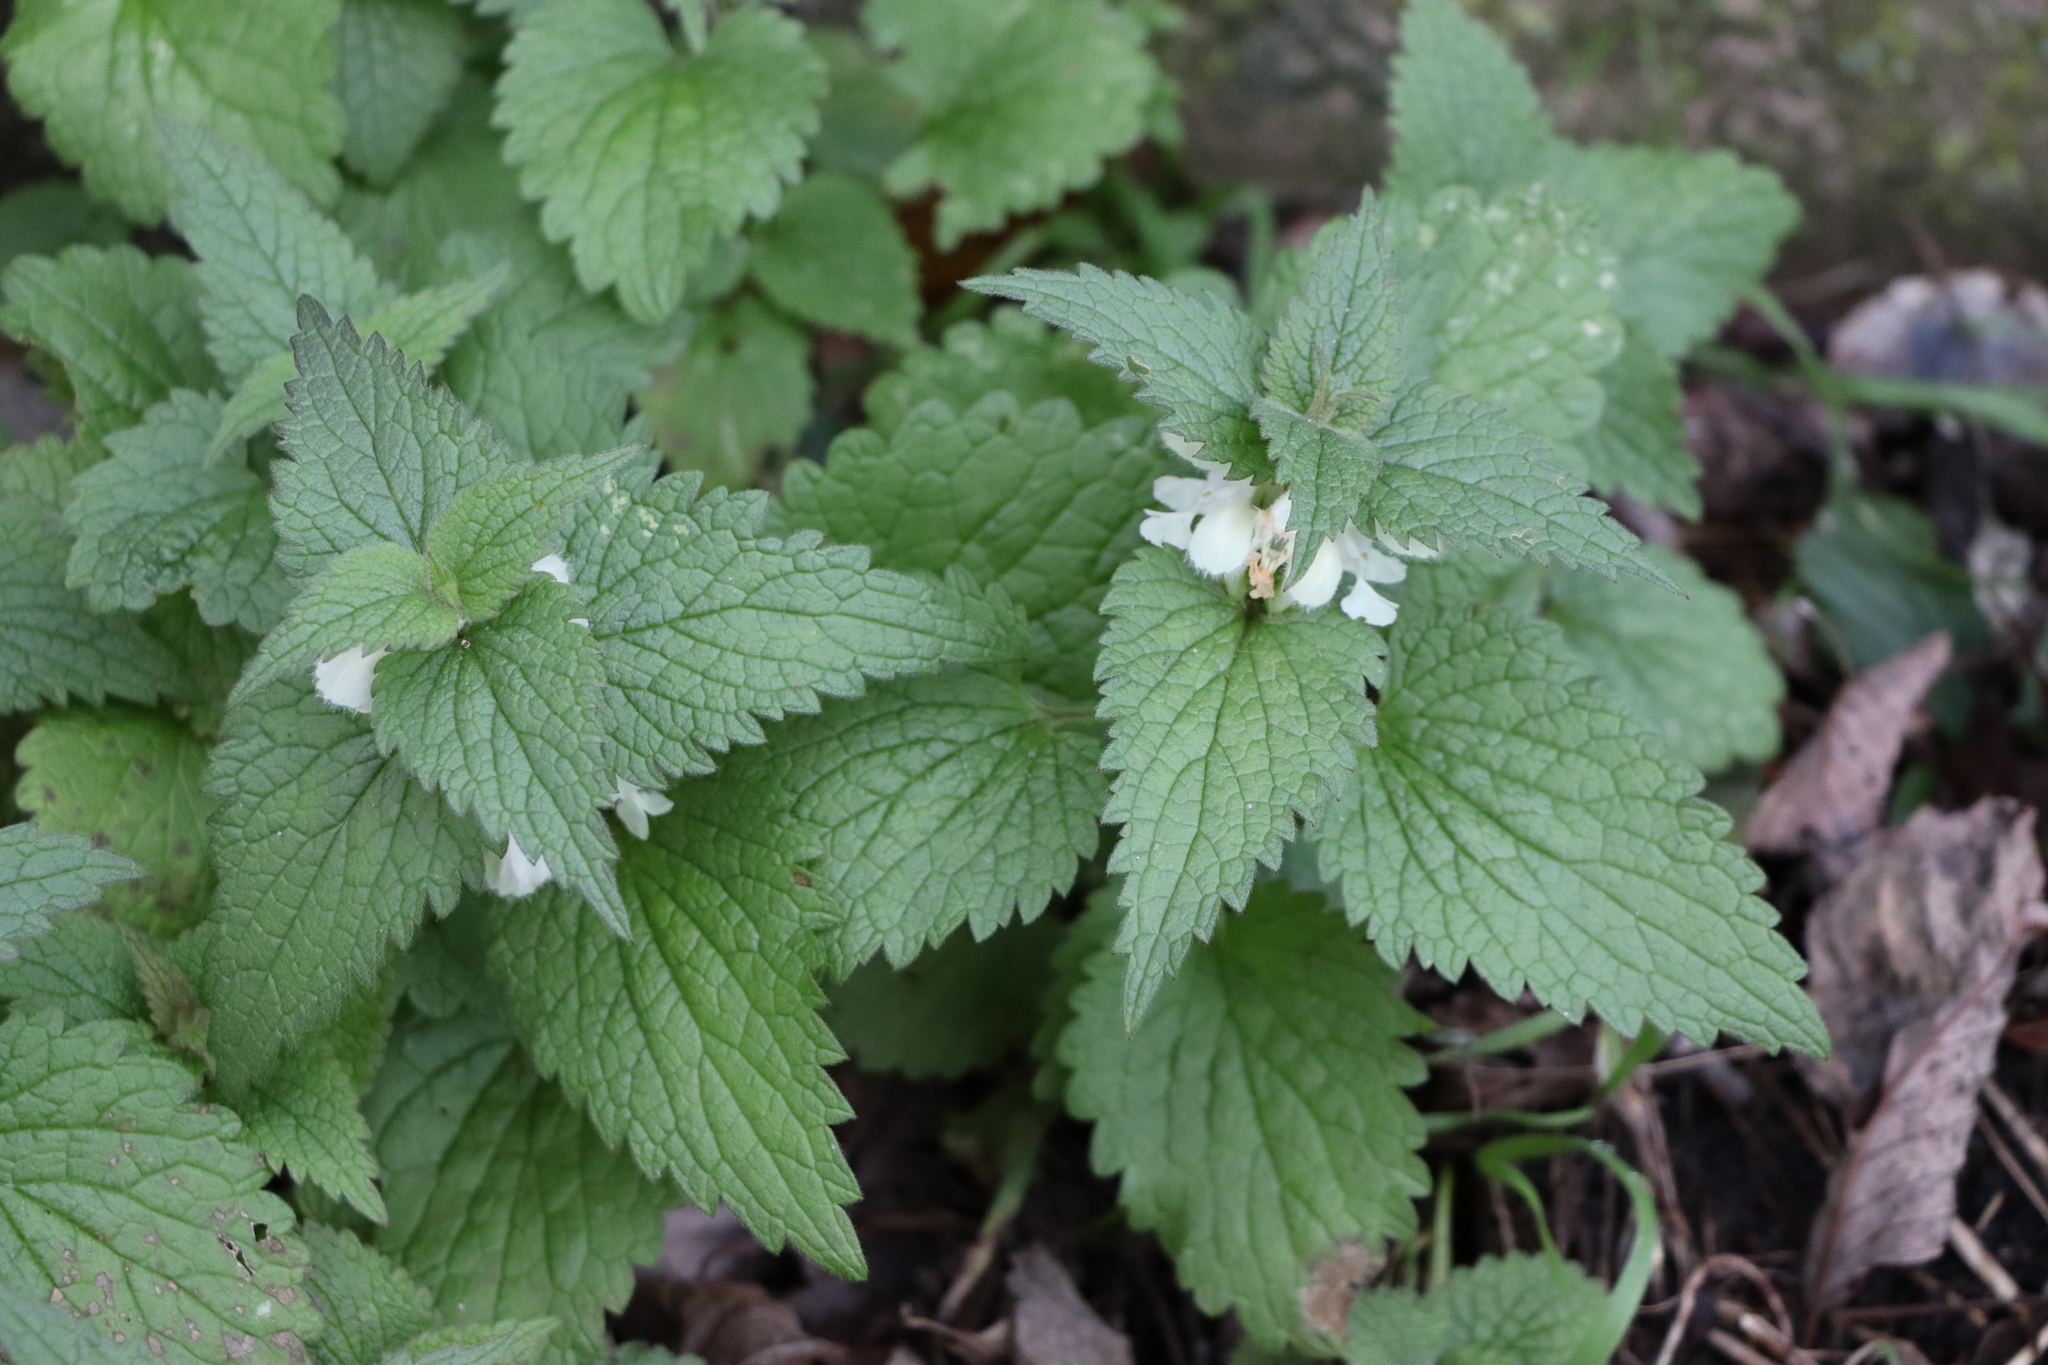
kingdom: Plantae
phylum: Tracheophyta
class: Magnoliopsida
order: Lamiales
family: Lamiaceae
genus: Lamium
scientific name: Lamium album
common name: White dead-nettle
